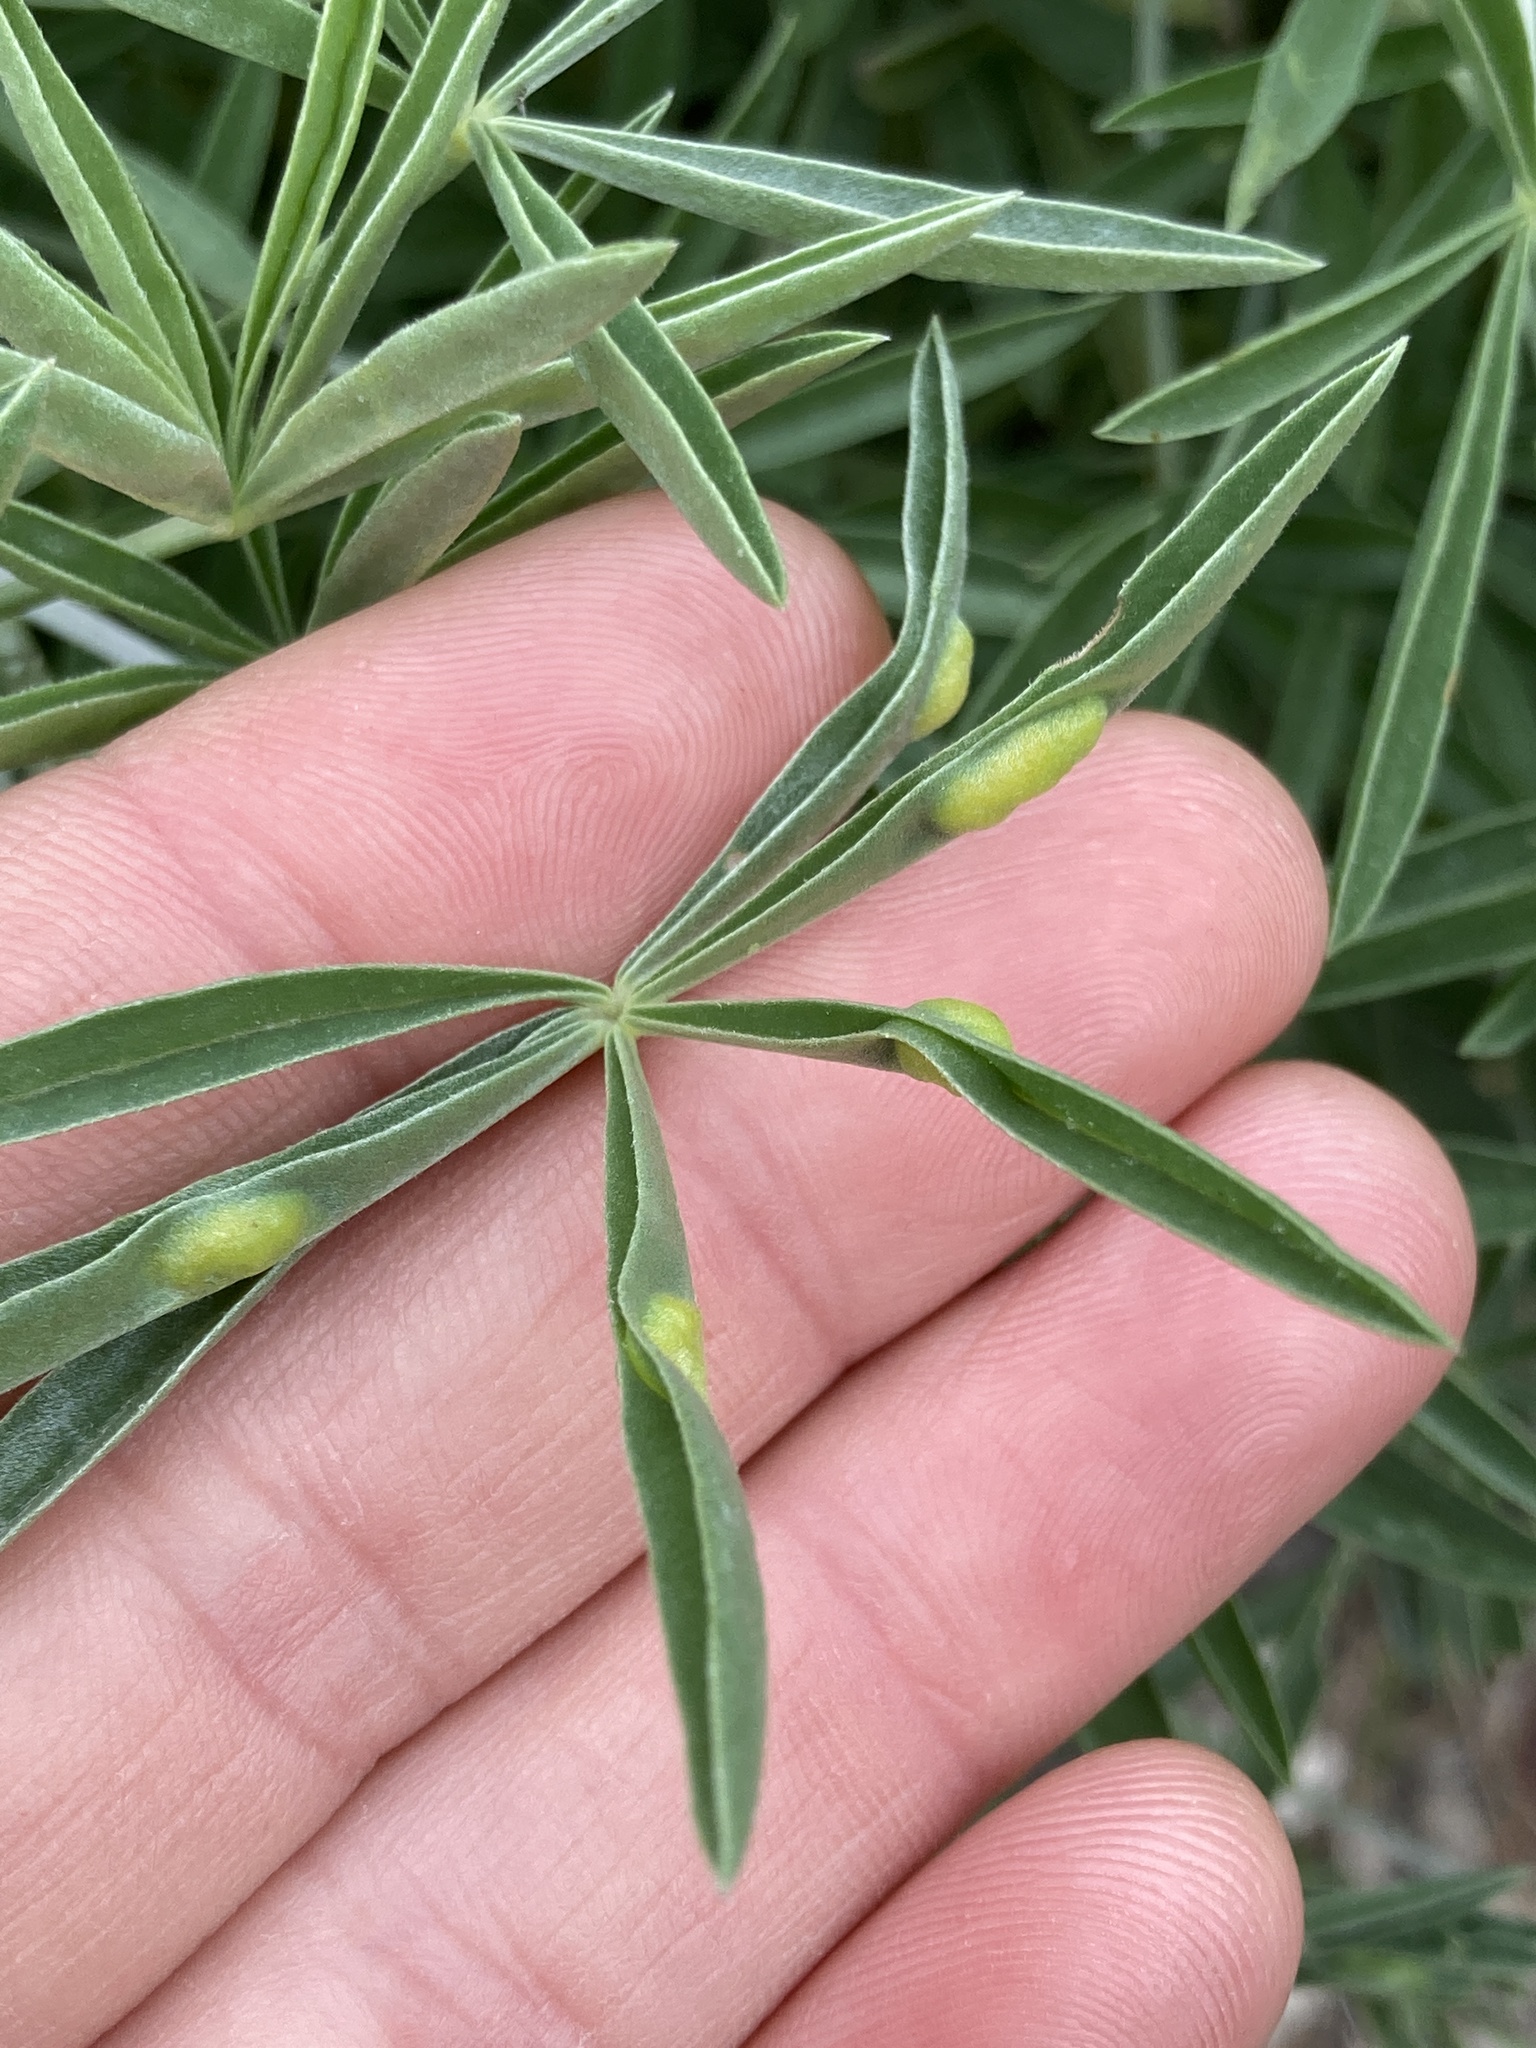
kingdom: Animalia
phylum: Arthropoda
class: Insecta
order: Diptera
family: Cecidomyiidae
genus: Dasineura
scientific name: Dasineura lupinorum
